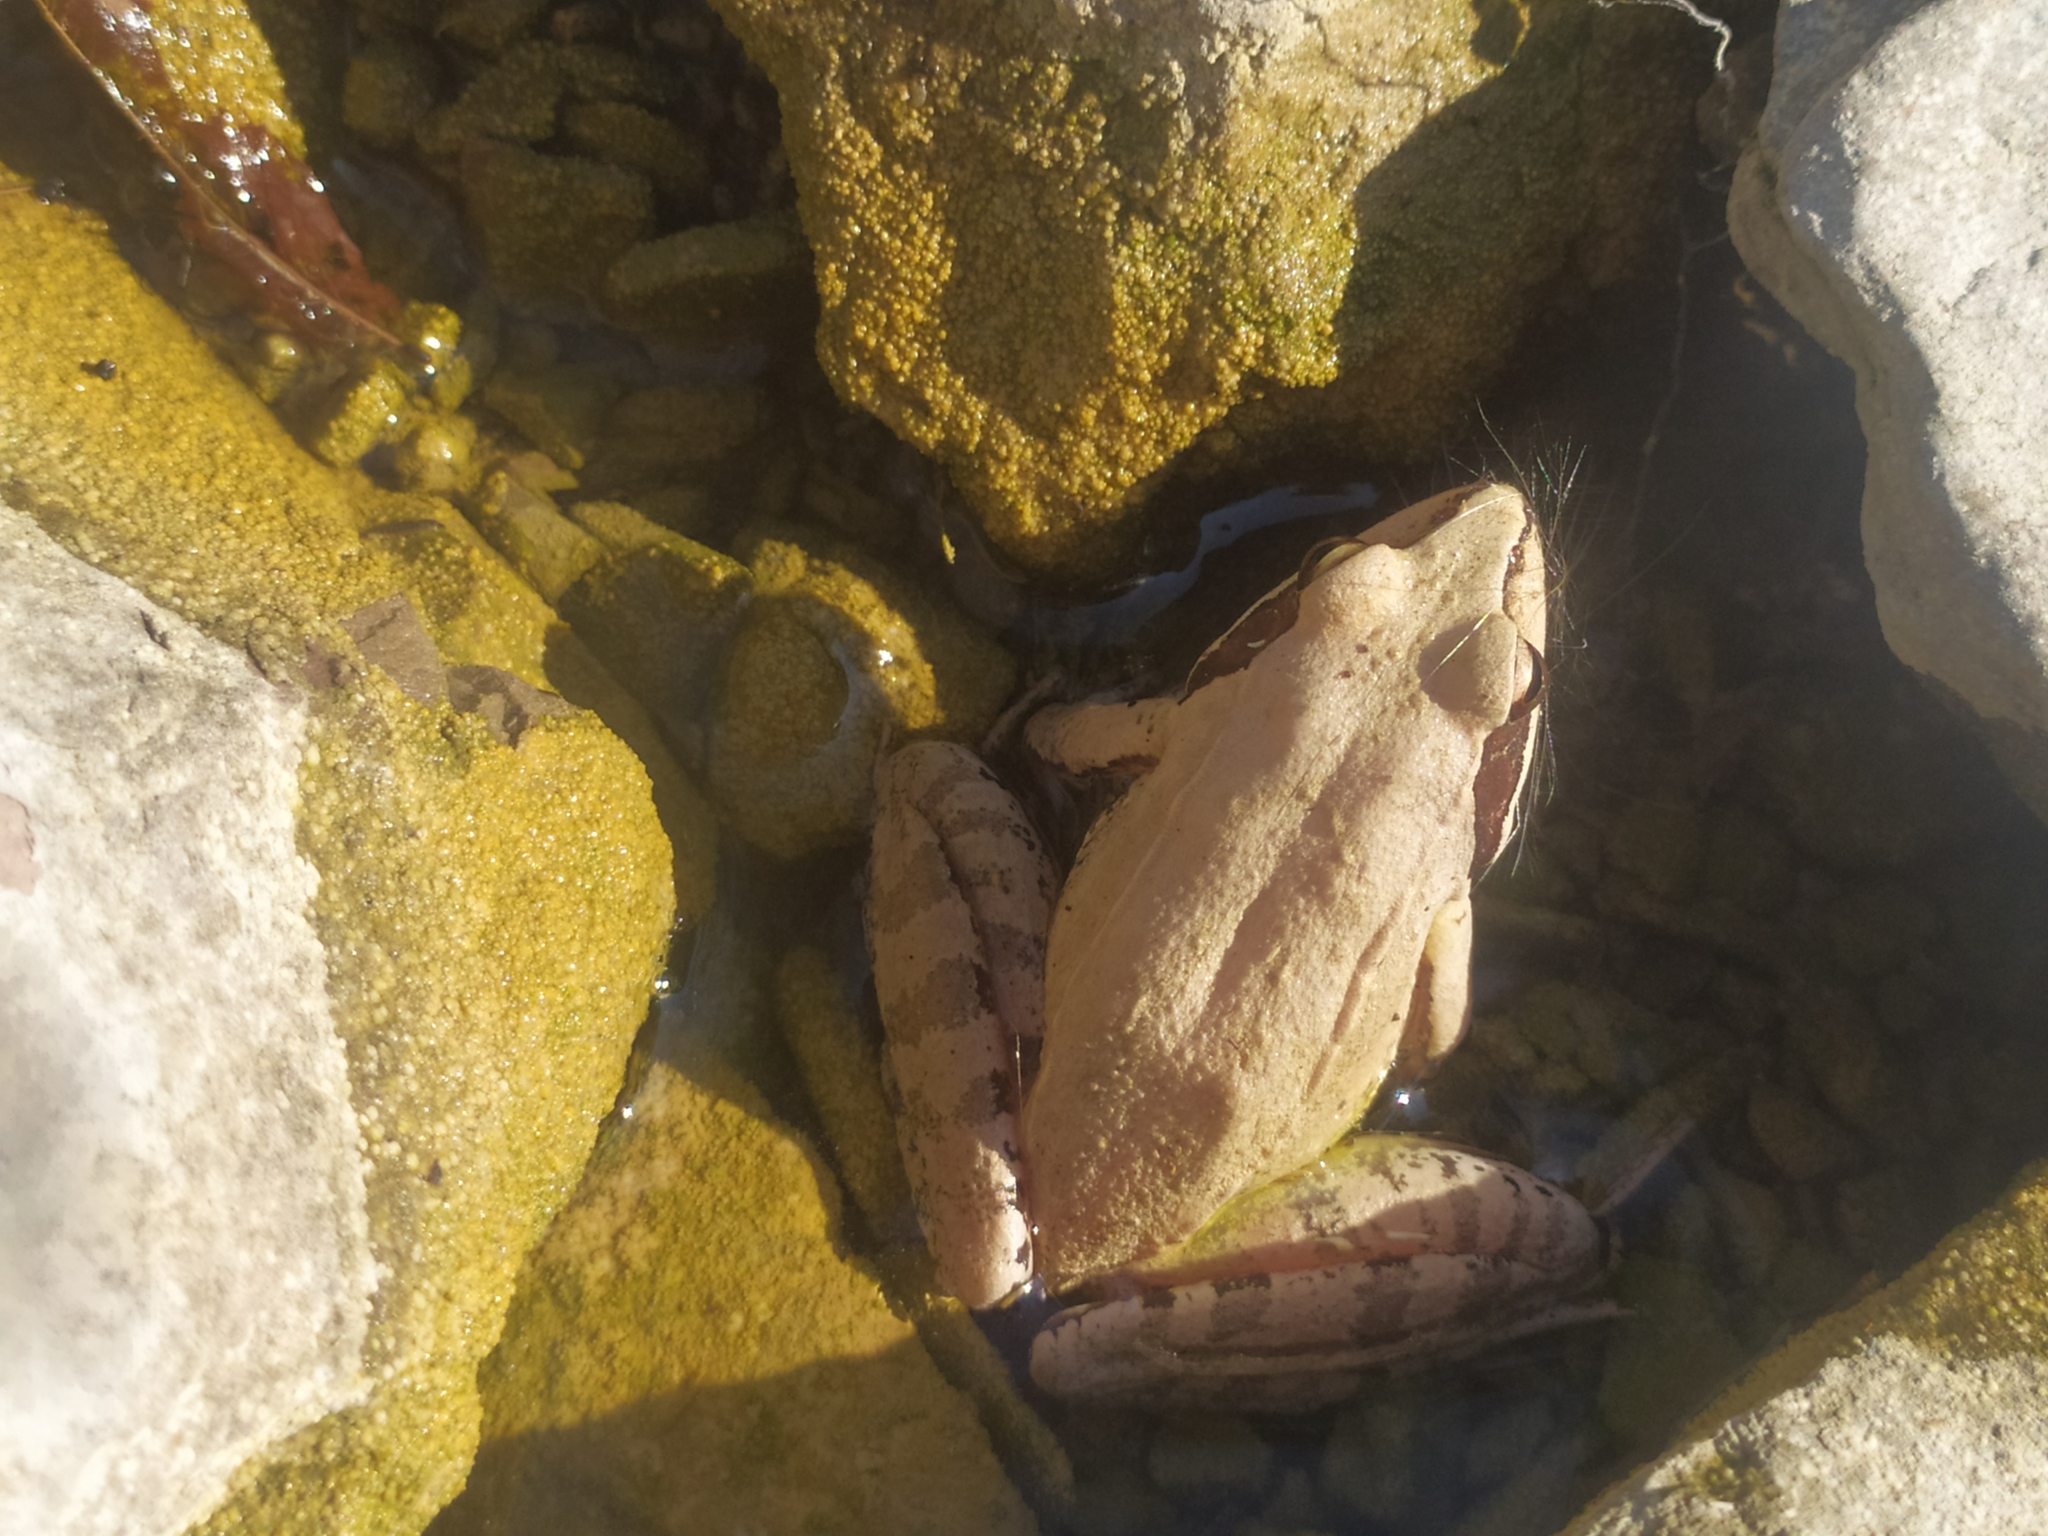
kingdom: Animalia
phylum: Chordata
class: Amphibia
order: Anura
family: Ranidae
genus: Rana
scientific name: Rana dalmatina
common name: Agile frog
